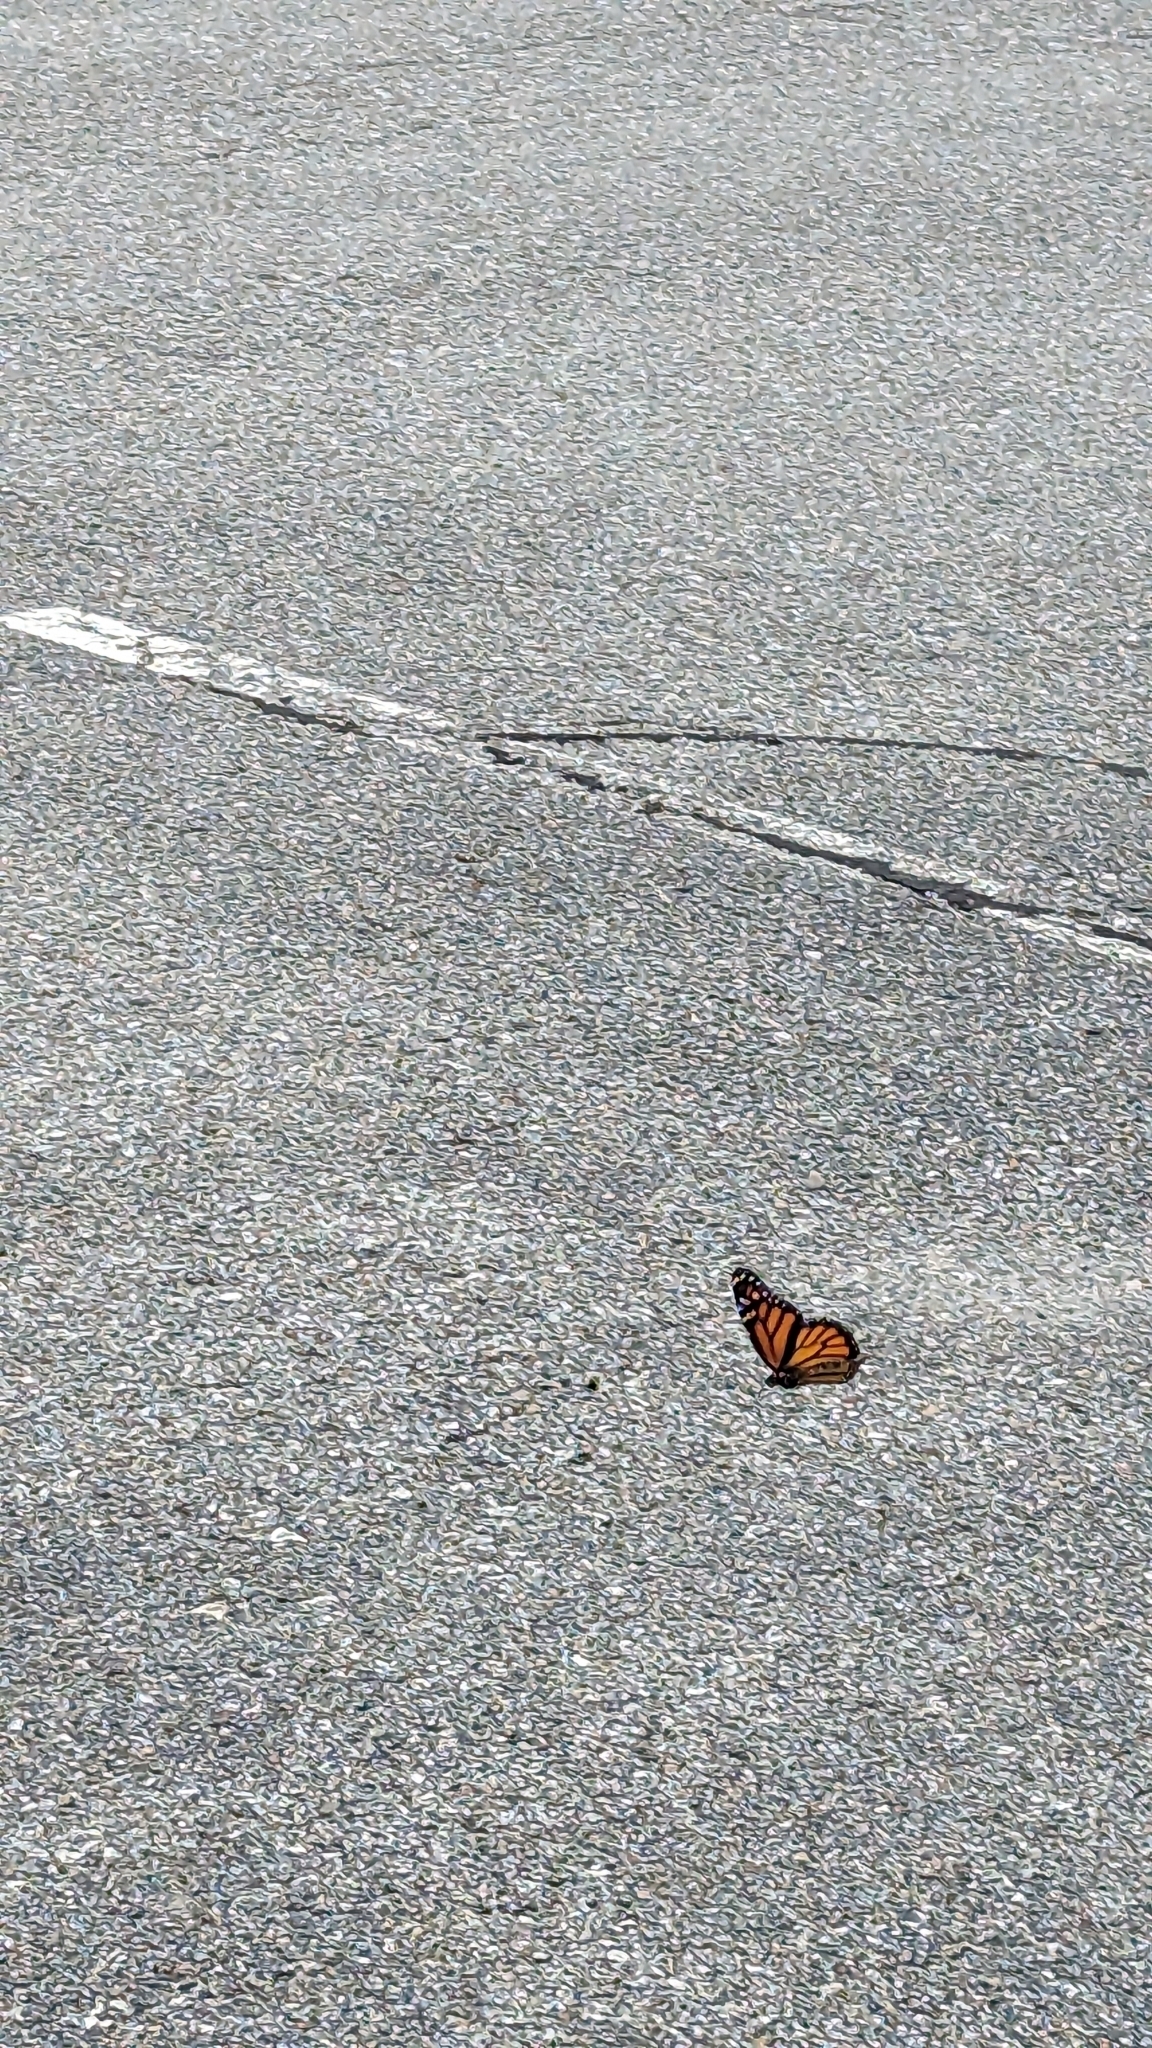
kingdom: Animalia
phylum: Arthropoda
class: Insecta
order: Lepidoptera
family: Nymphalidae
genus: Danaus
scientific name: Danaus plexippus
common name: Monarch
